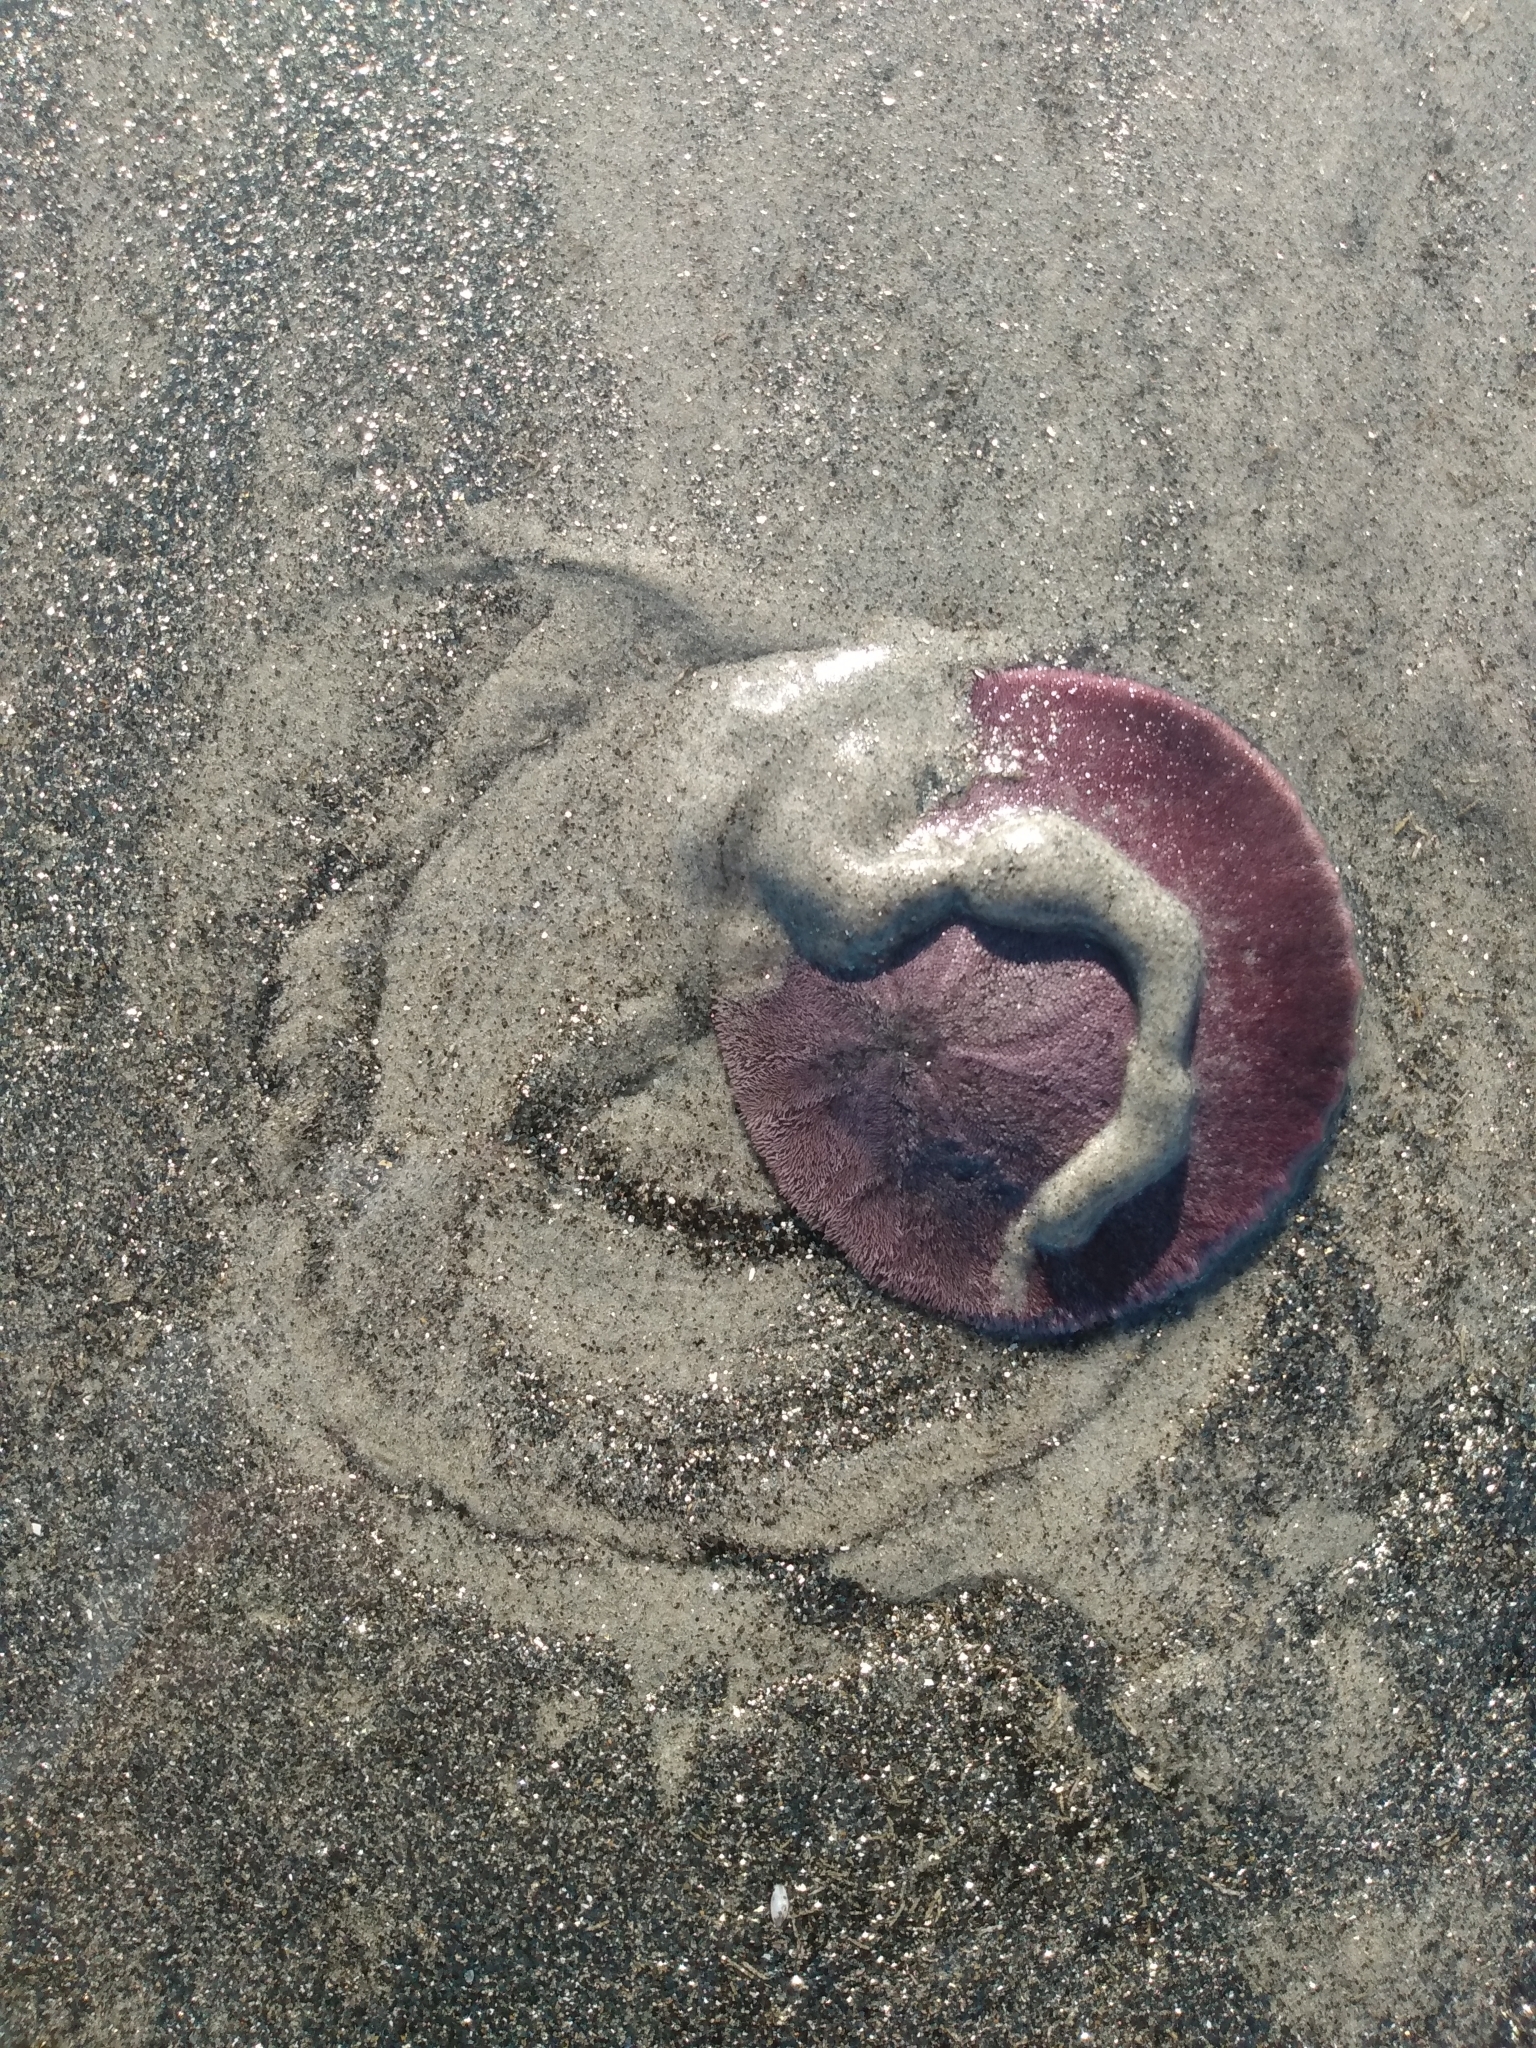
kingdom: Animalia
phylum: Echinodermata
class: Echinoidea
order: Echinolampadacea
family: Dendrasteridae
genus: Dendraster
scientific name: Dendraster excentricus
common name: Eccentric sand dollar sea urchin
